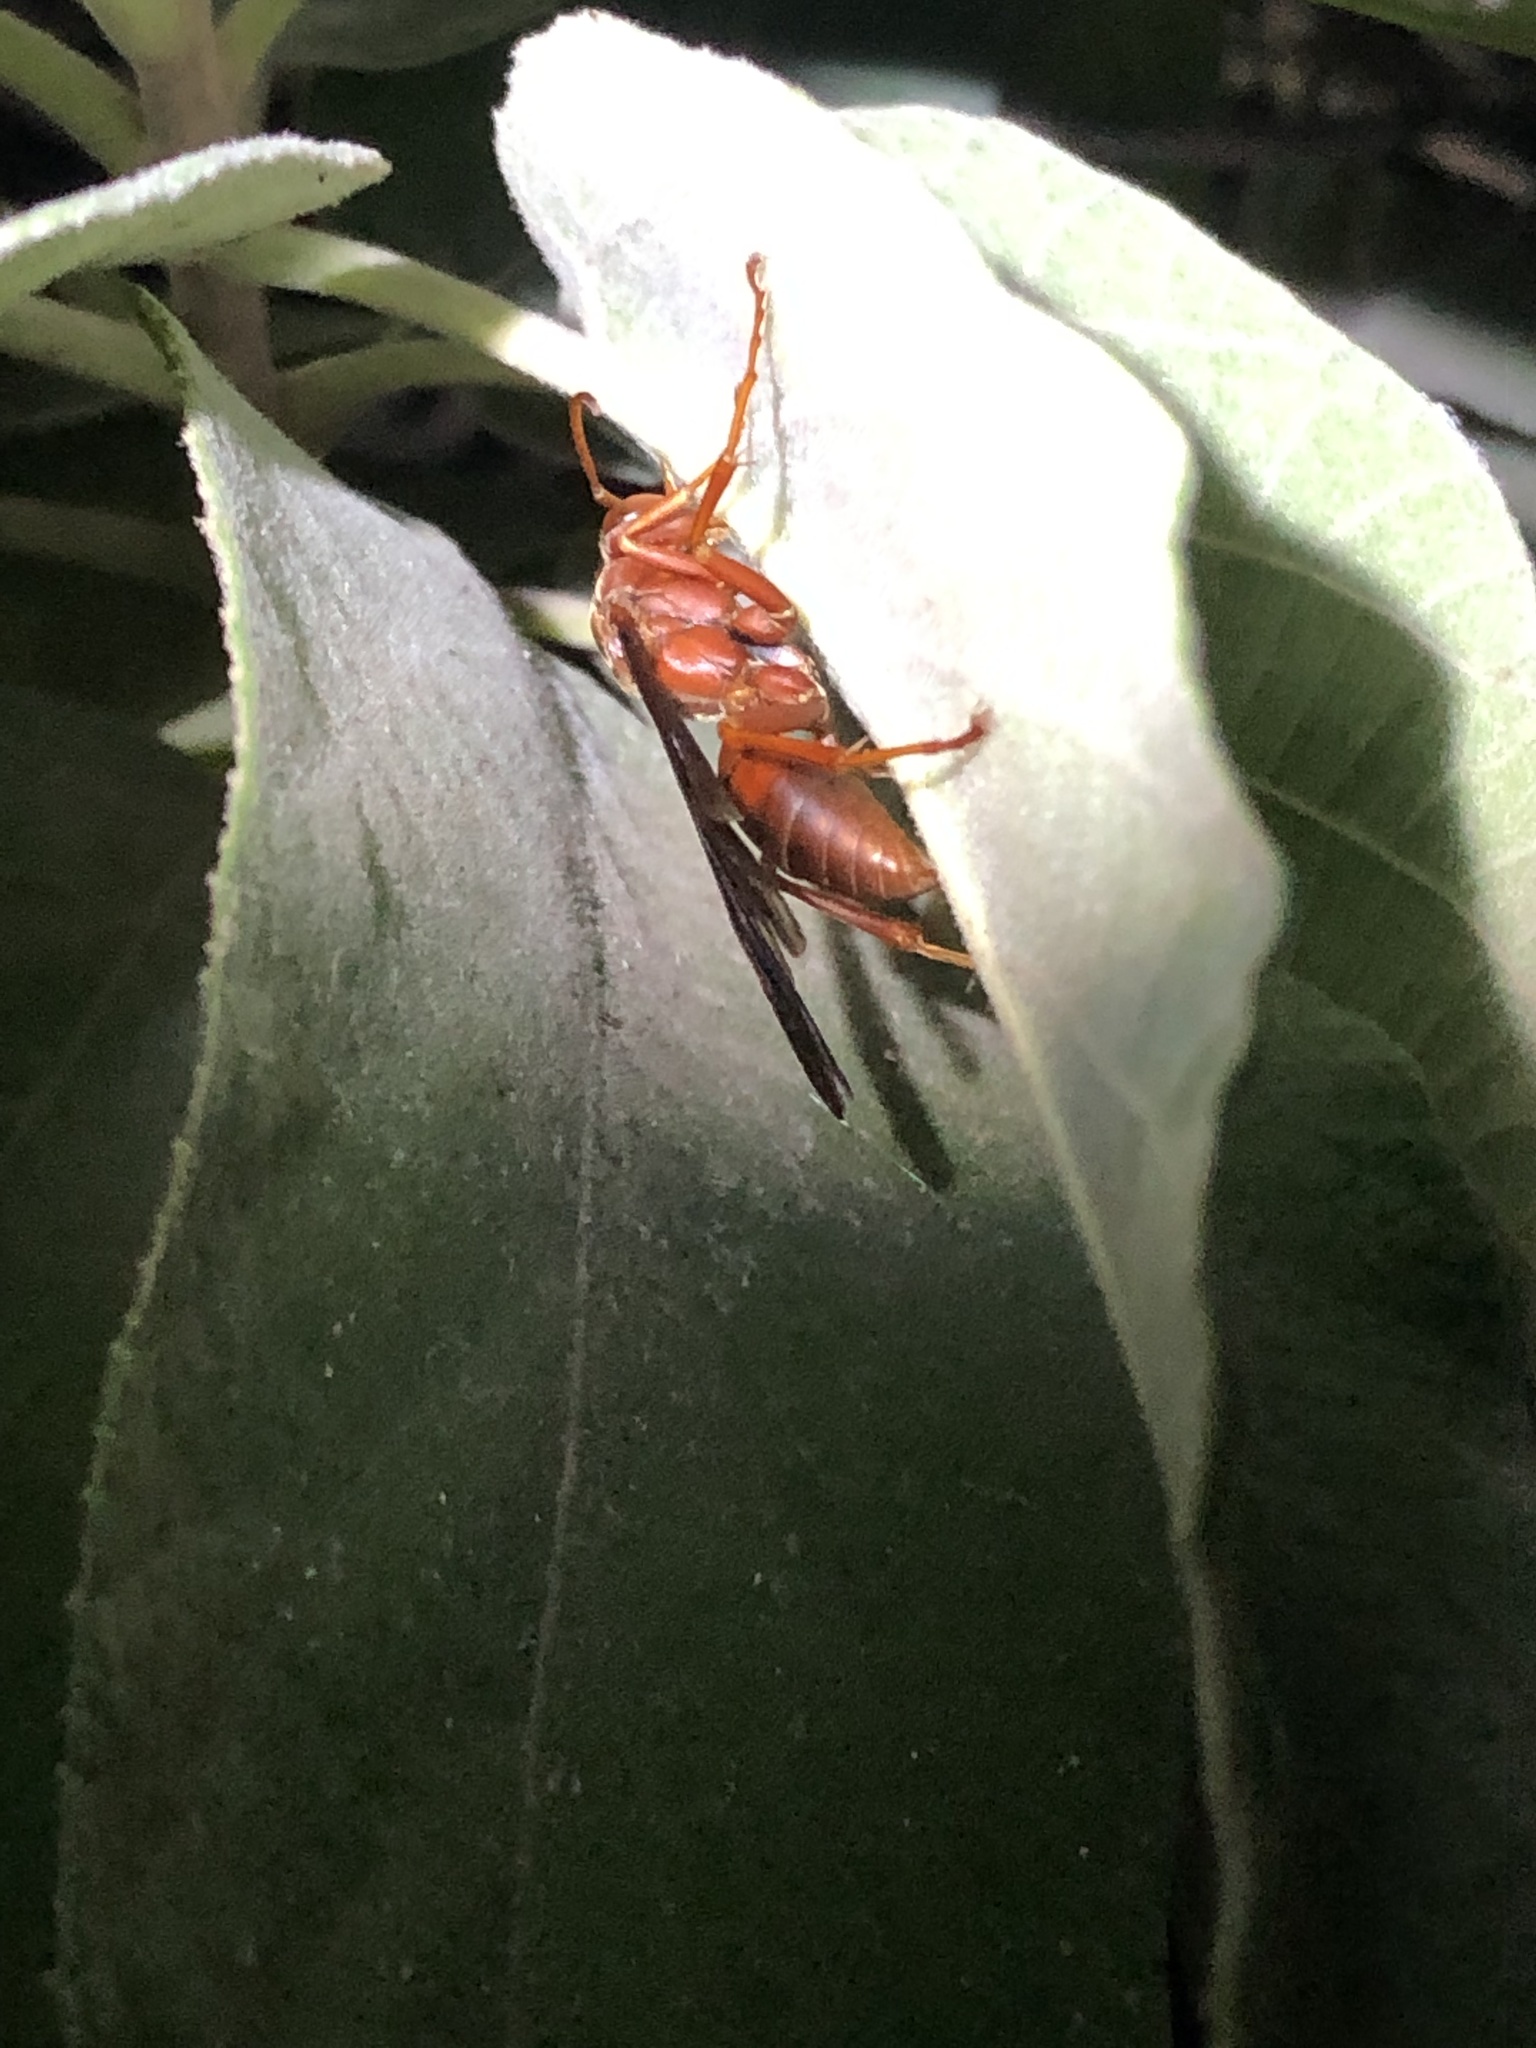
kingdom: Animalia
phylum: Arthropoda
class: Insecta
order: Hymenoptera
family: Eumenidae
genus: Polistes
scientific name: Polistes carolina
